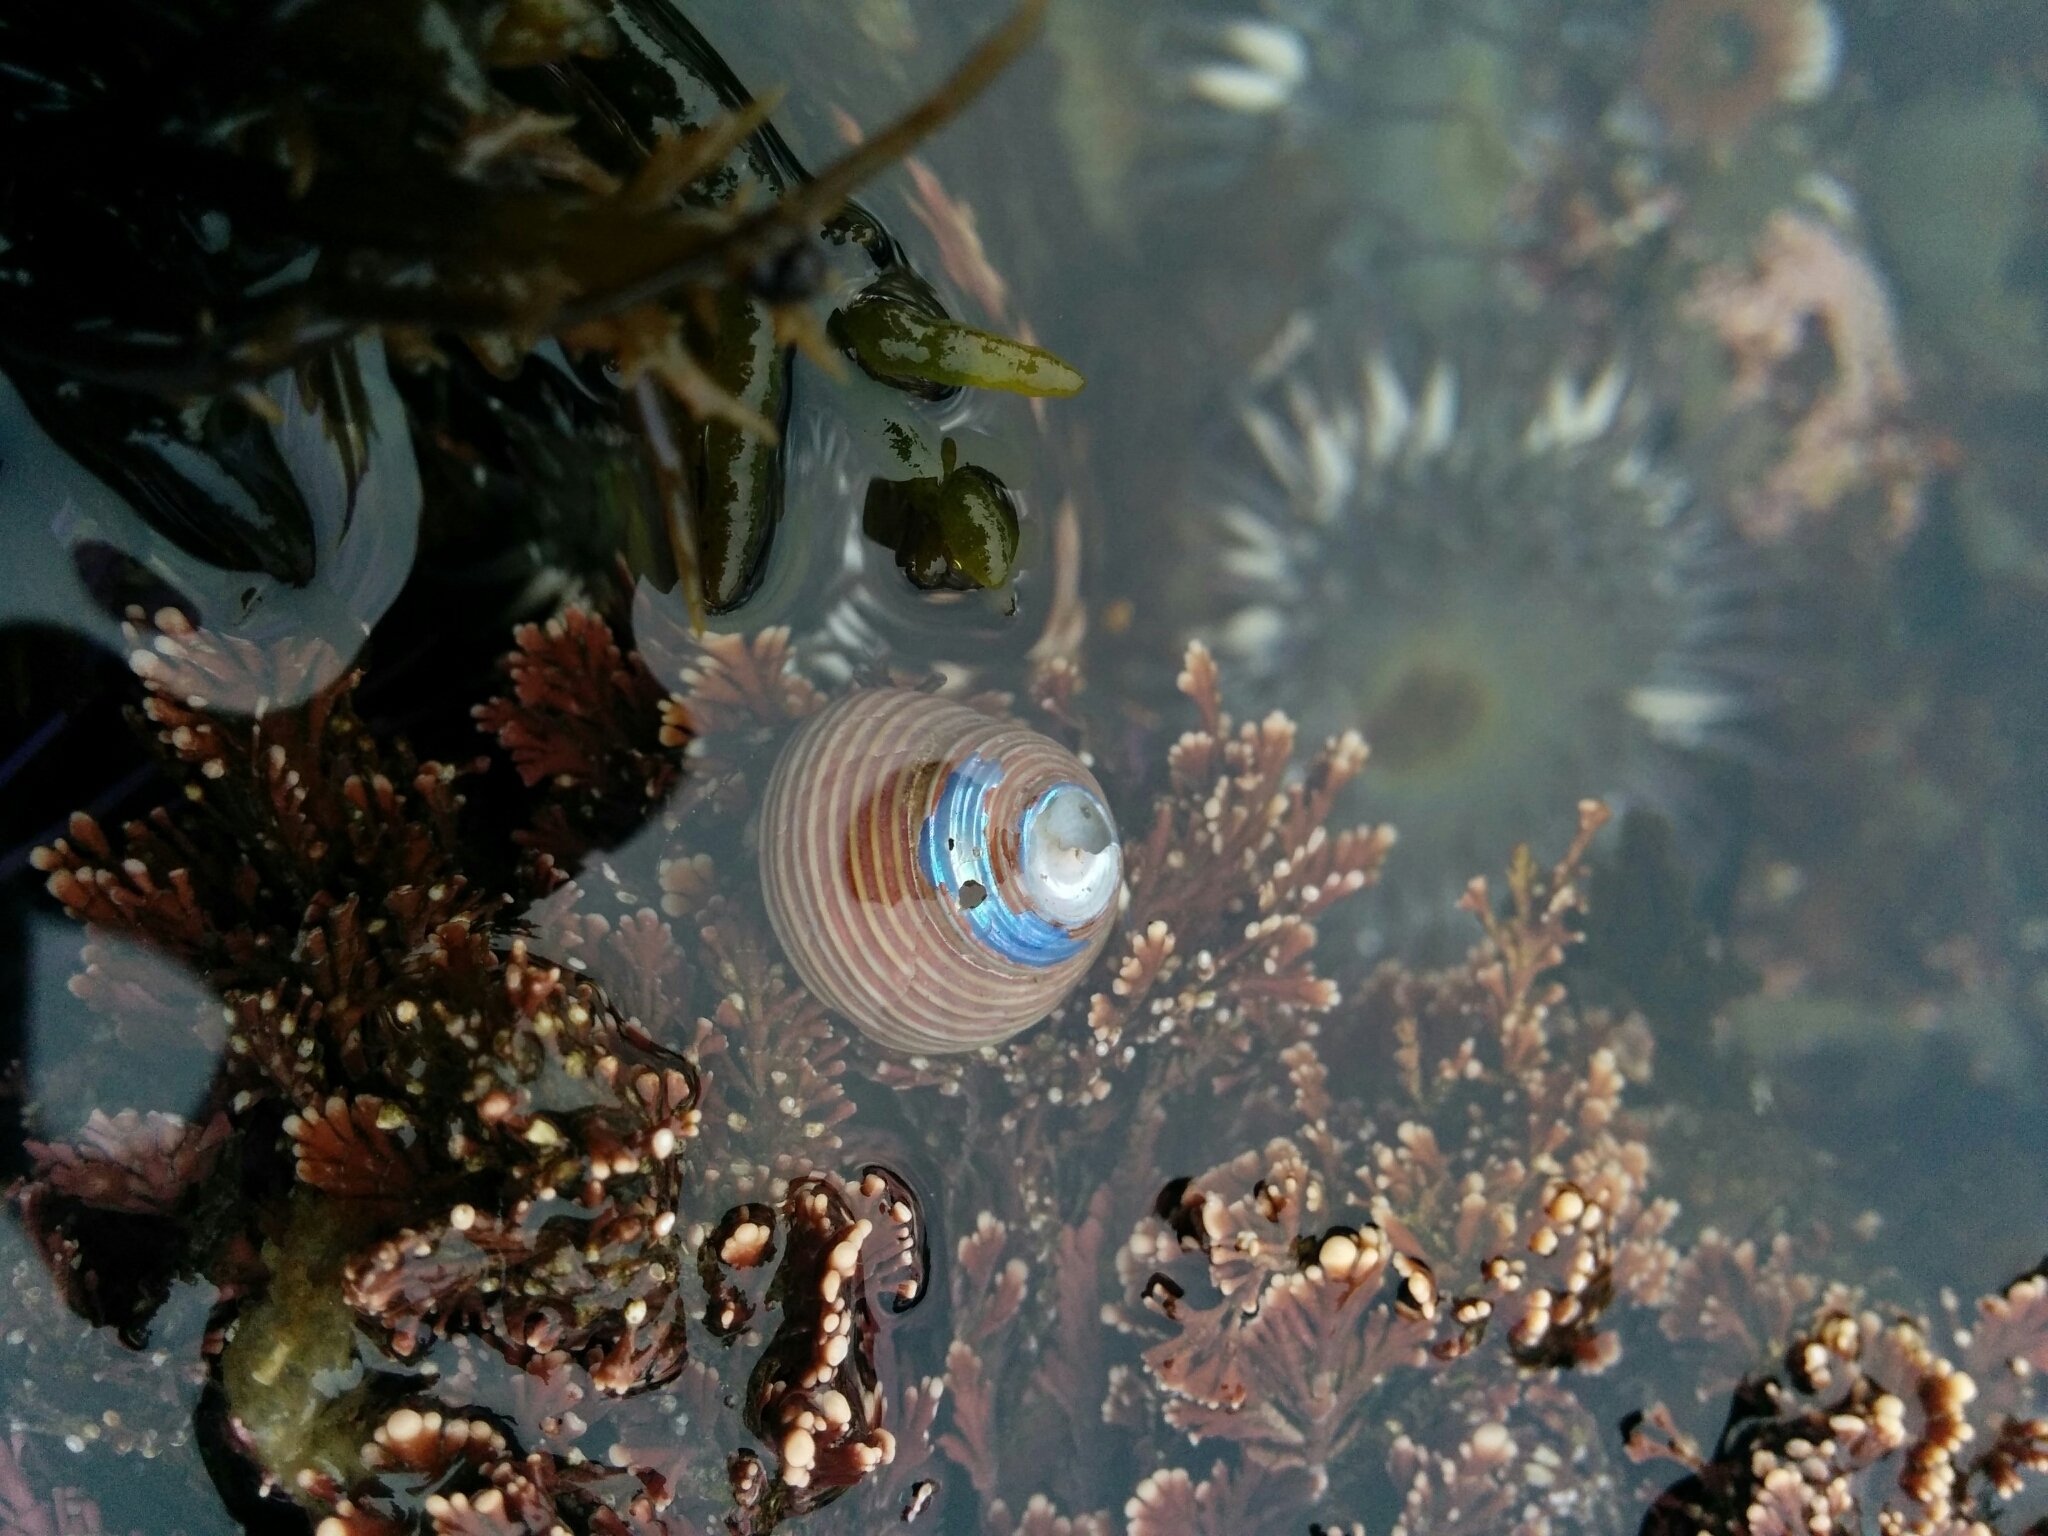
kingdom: Animalia
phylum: Mollusca
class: Gastropoda
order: Trochida
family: Calliostomatidae
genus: Calliostoma
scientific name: Calliostoma ligatum
